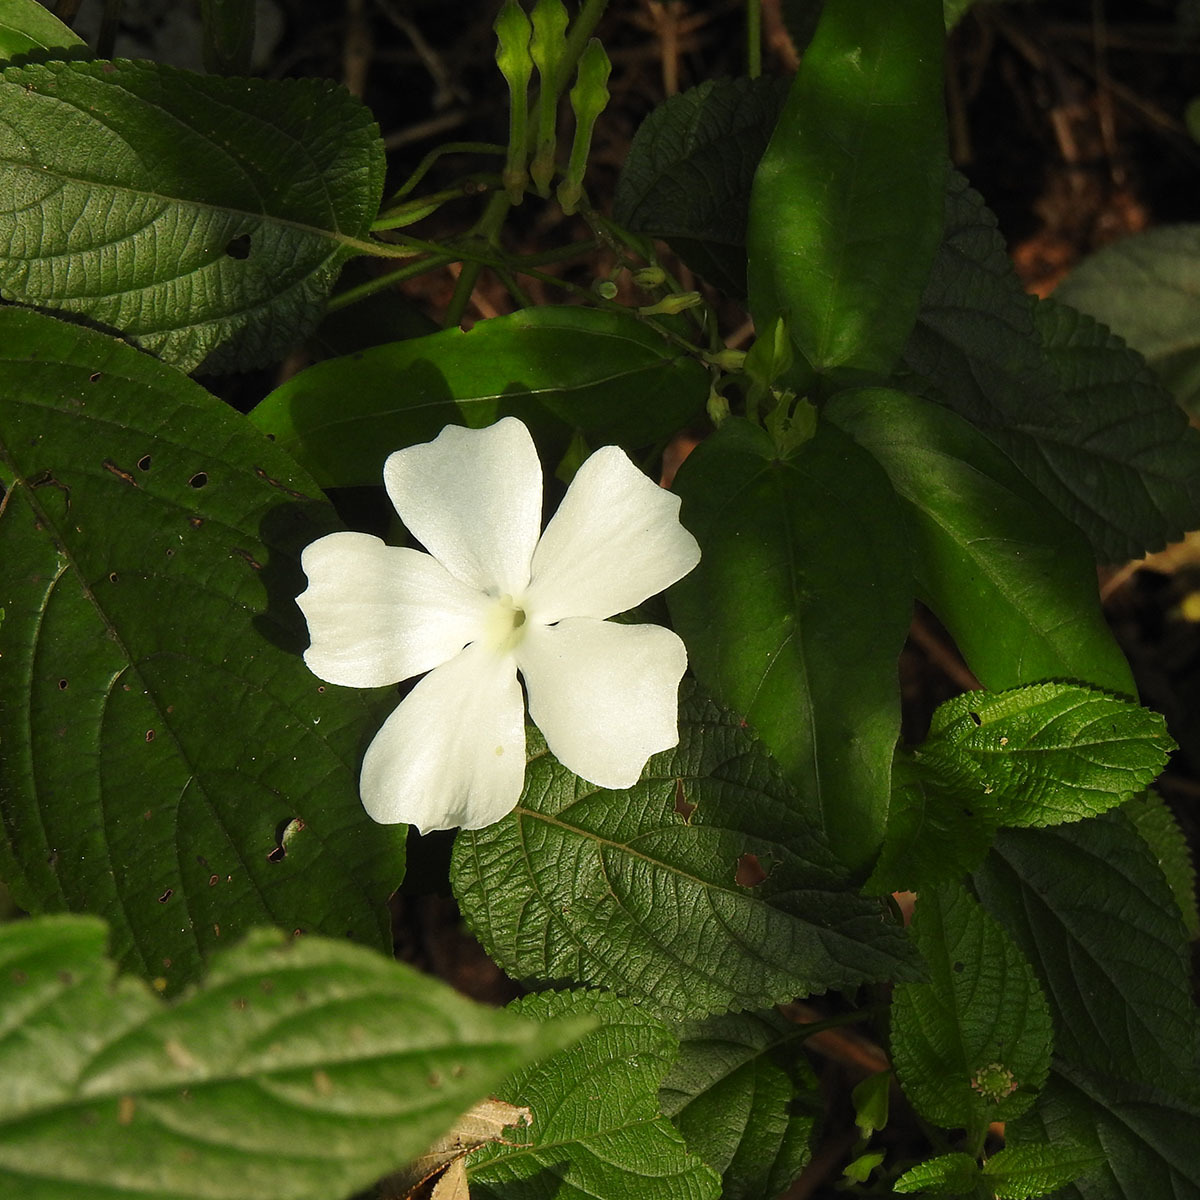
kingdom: Plantae
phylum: Tracheophyta
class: Magnoliopsida
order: Lamiales
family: Acanthaceae
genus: Thunbergia
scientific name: Thunbergia fragrans
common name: Whitelady
